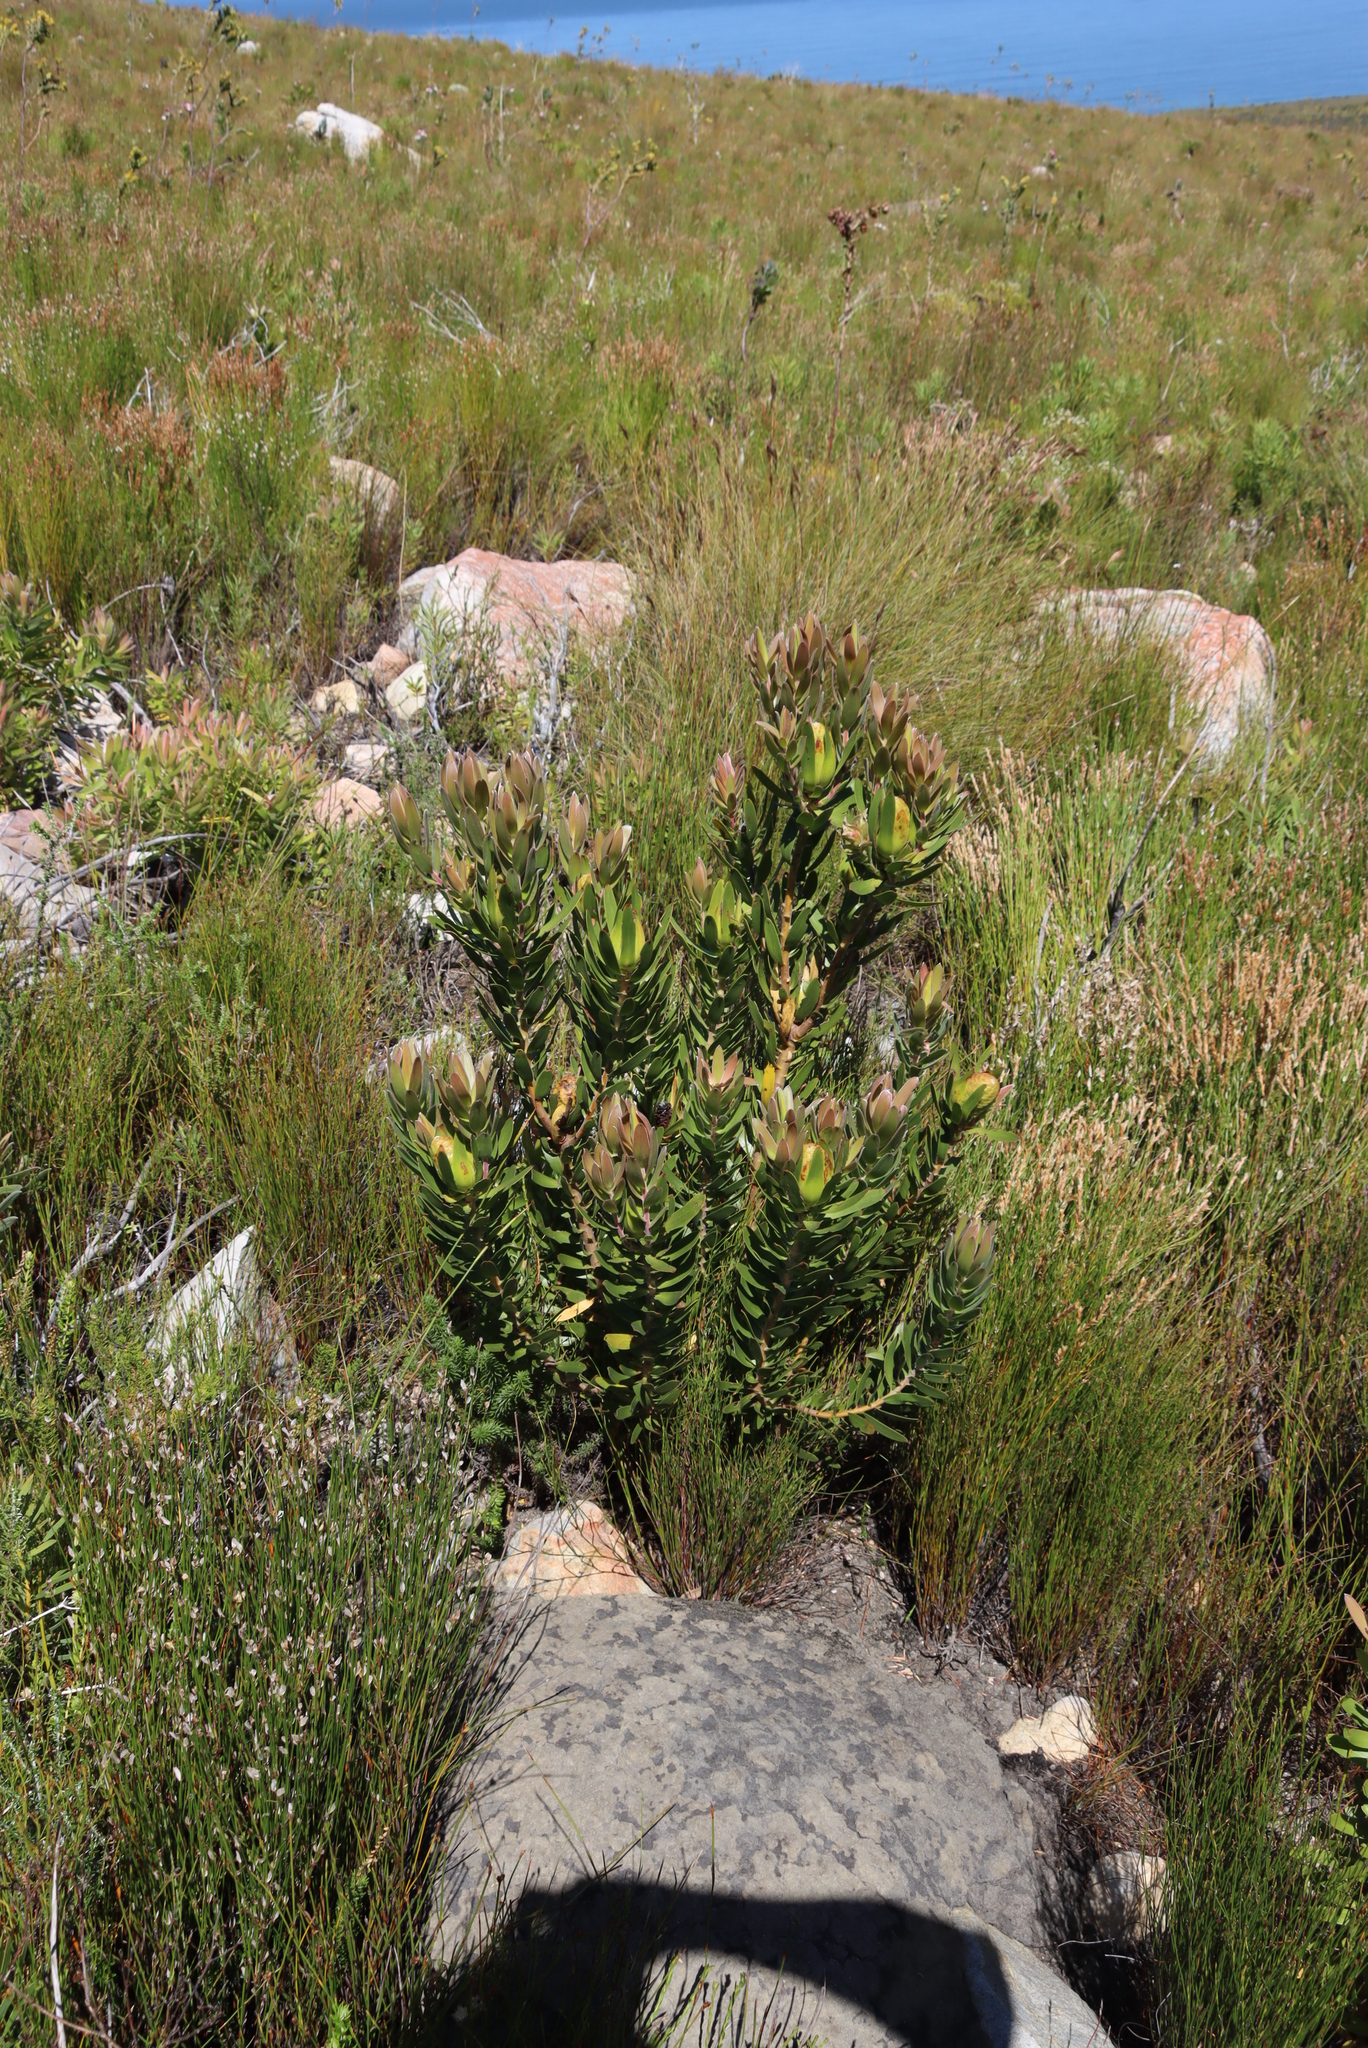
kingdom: Plantae
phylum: Tracheophyta
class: Magnoliopsida
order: Proteales
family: Proteaceae
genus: Leucadendron
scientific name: Leucadendron laureolum
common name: Golden sunshinebush
